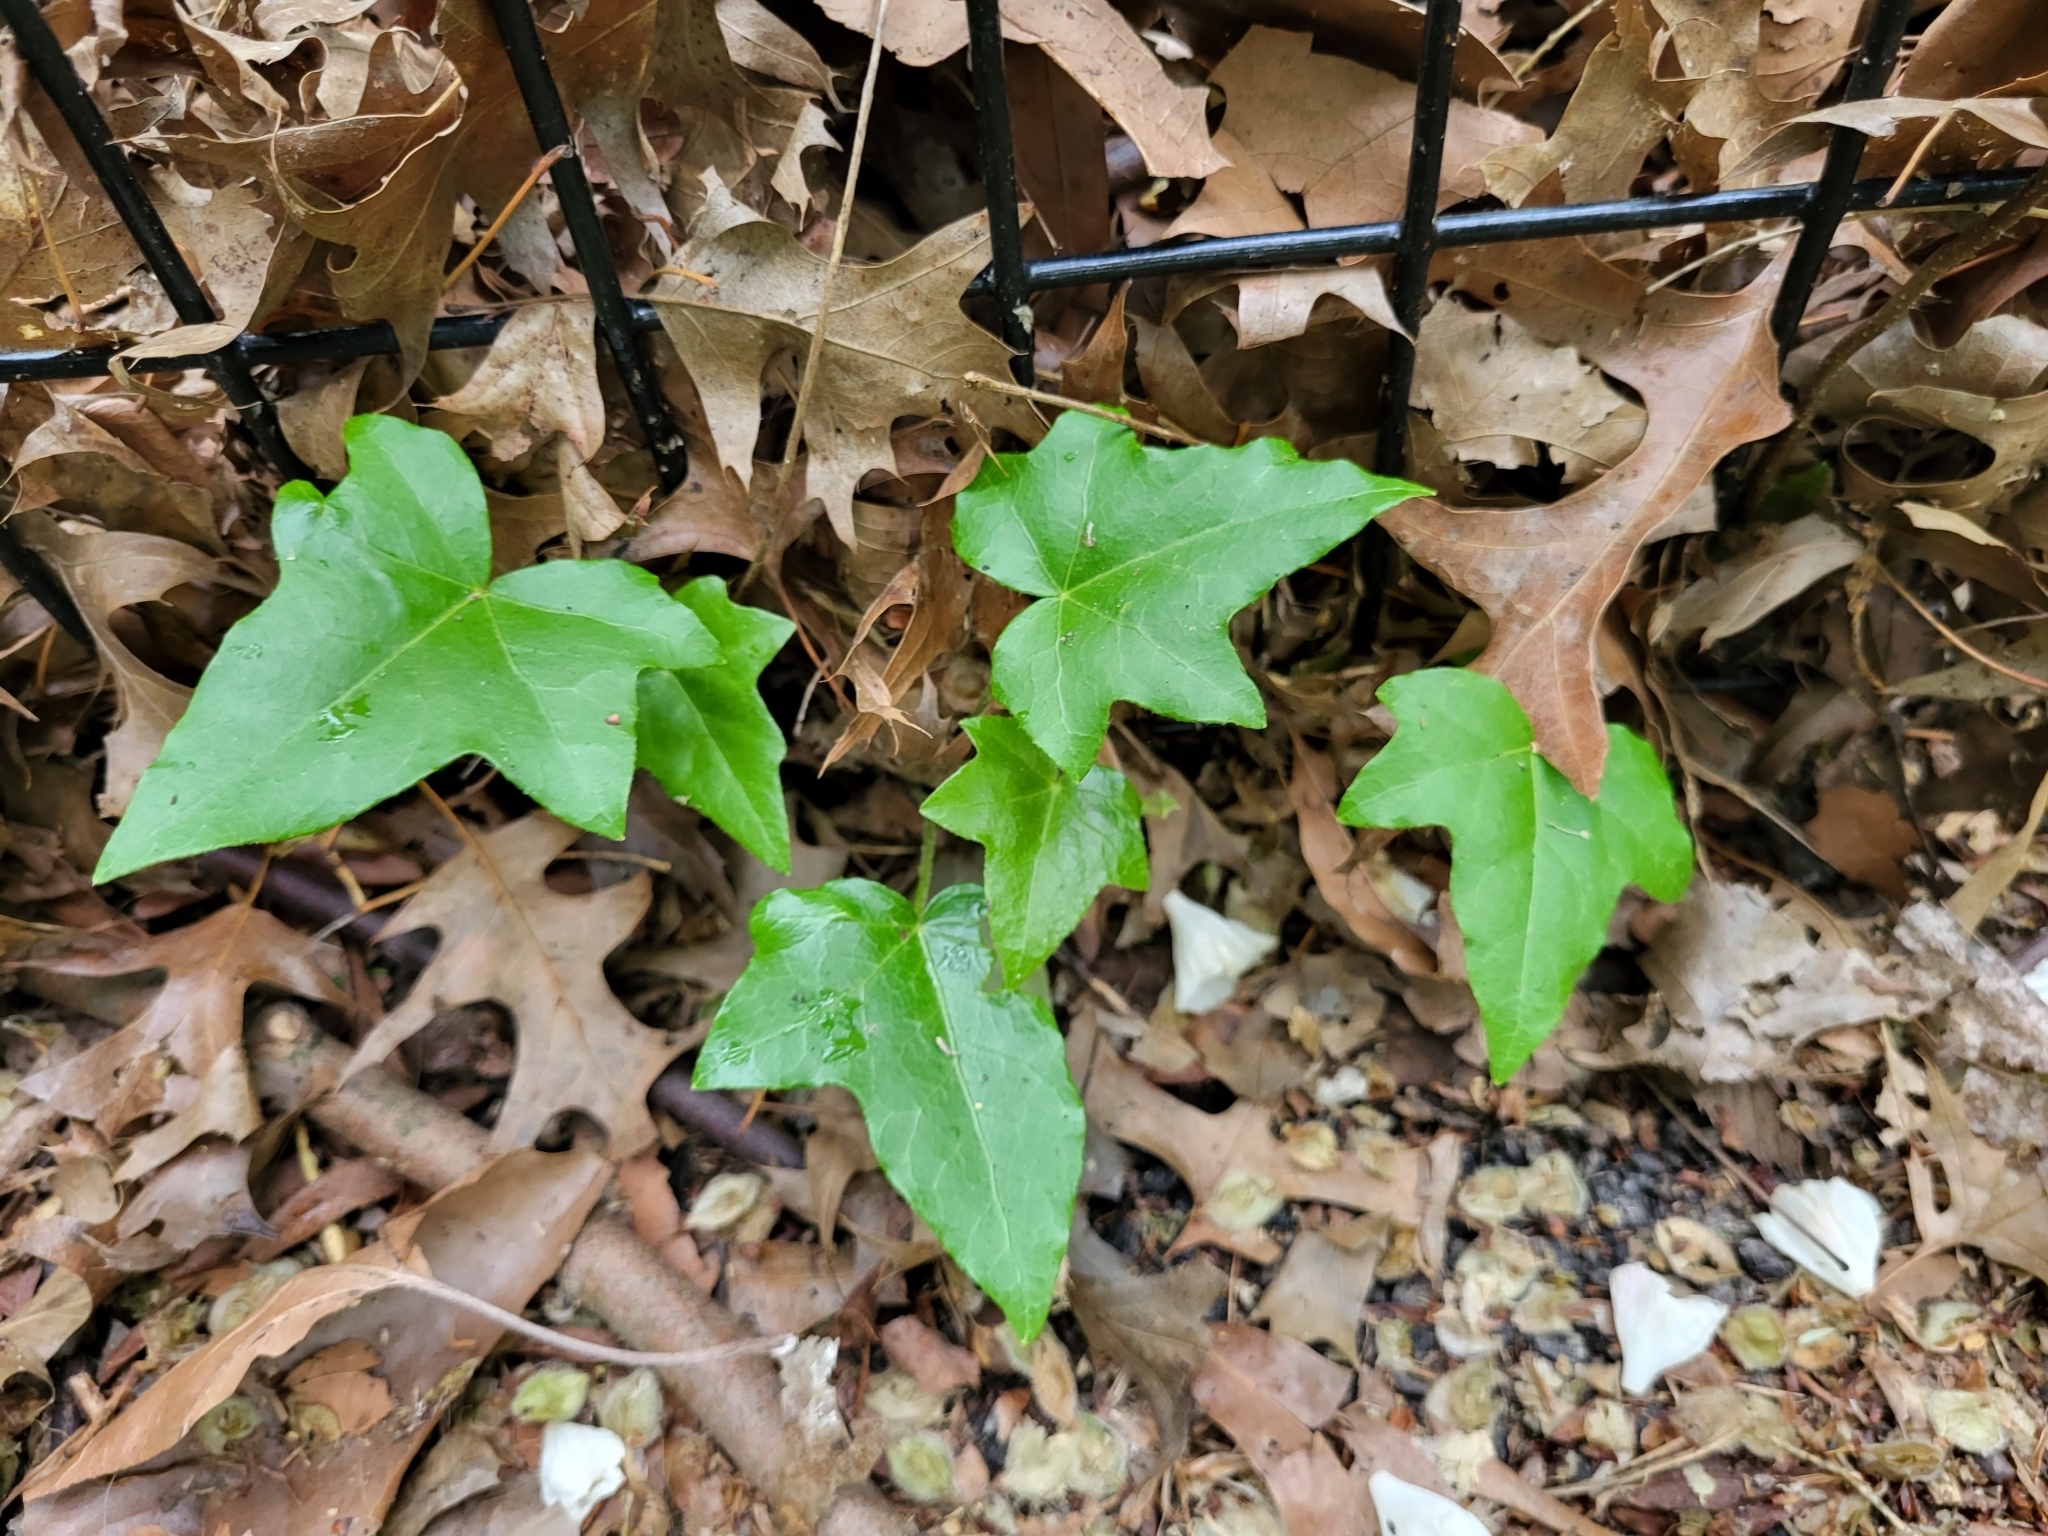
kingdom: Plantae
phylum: Tracheophyta
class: Magnoliopsida
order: Apiales
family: Araliaceae
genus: Hedera
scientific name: Hedera helix
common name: Ivy
